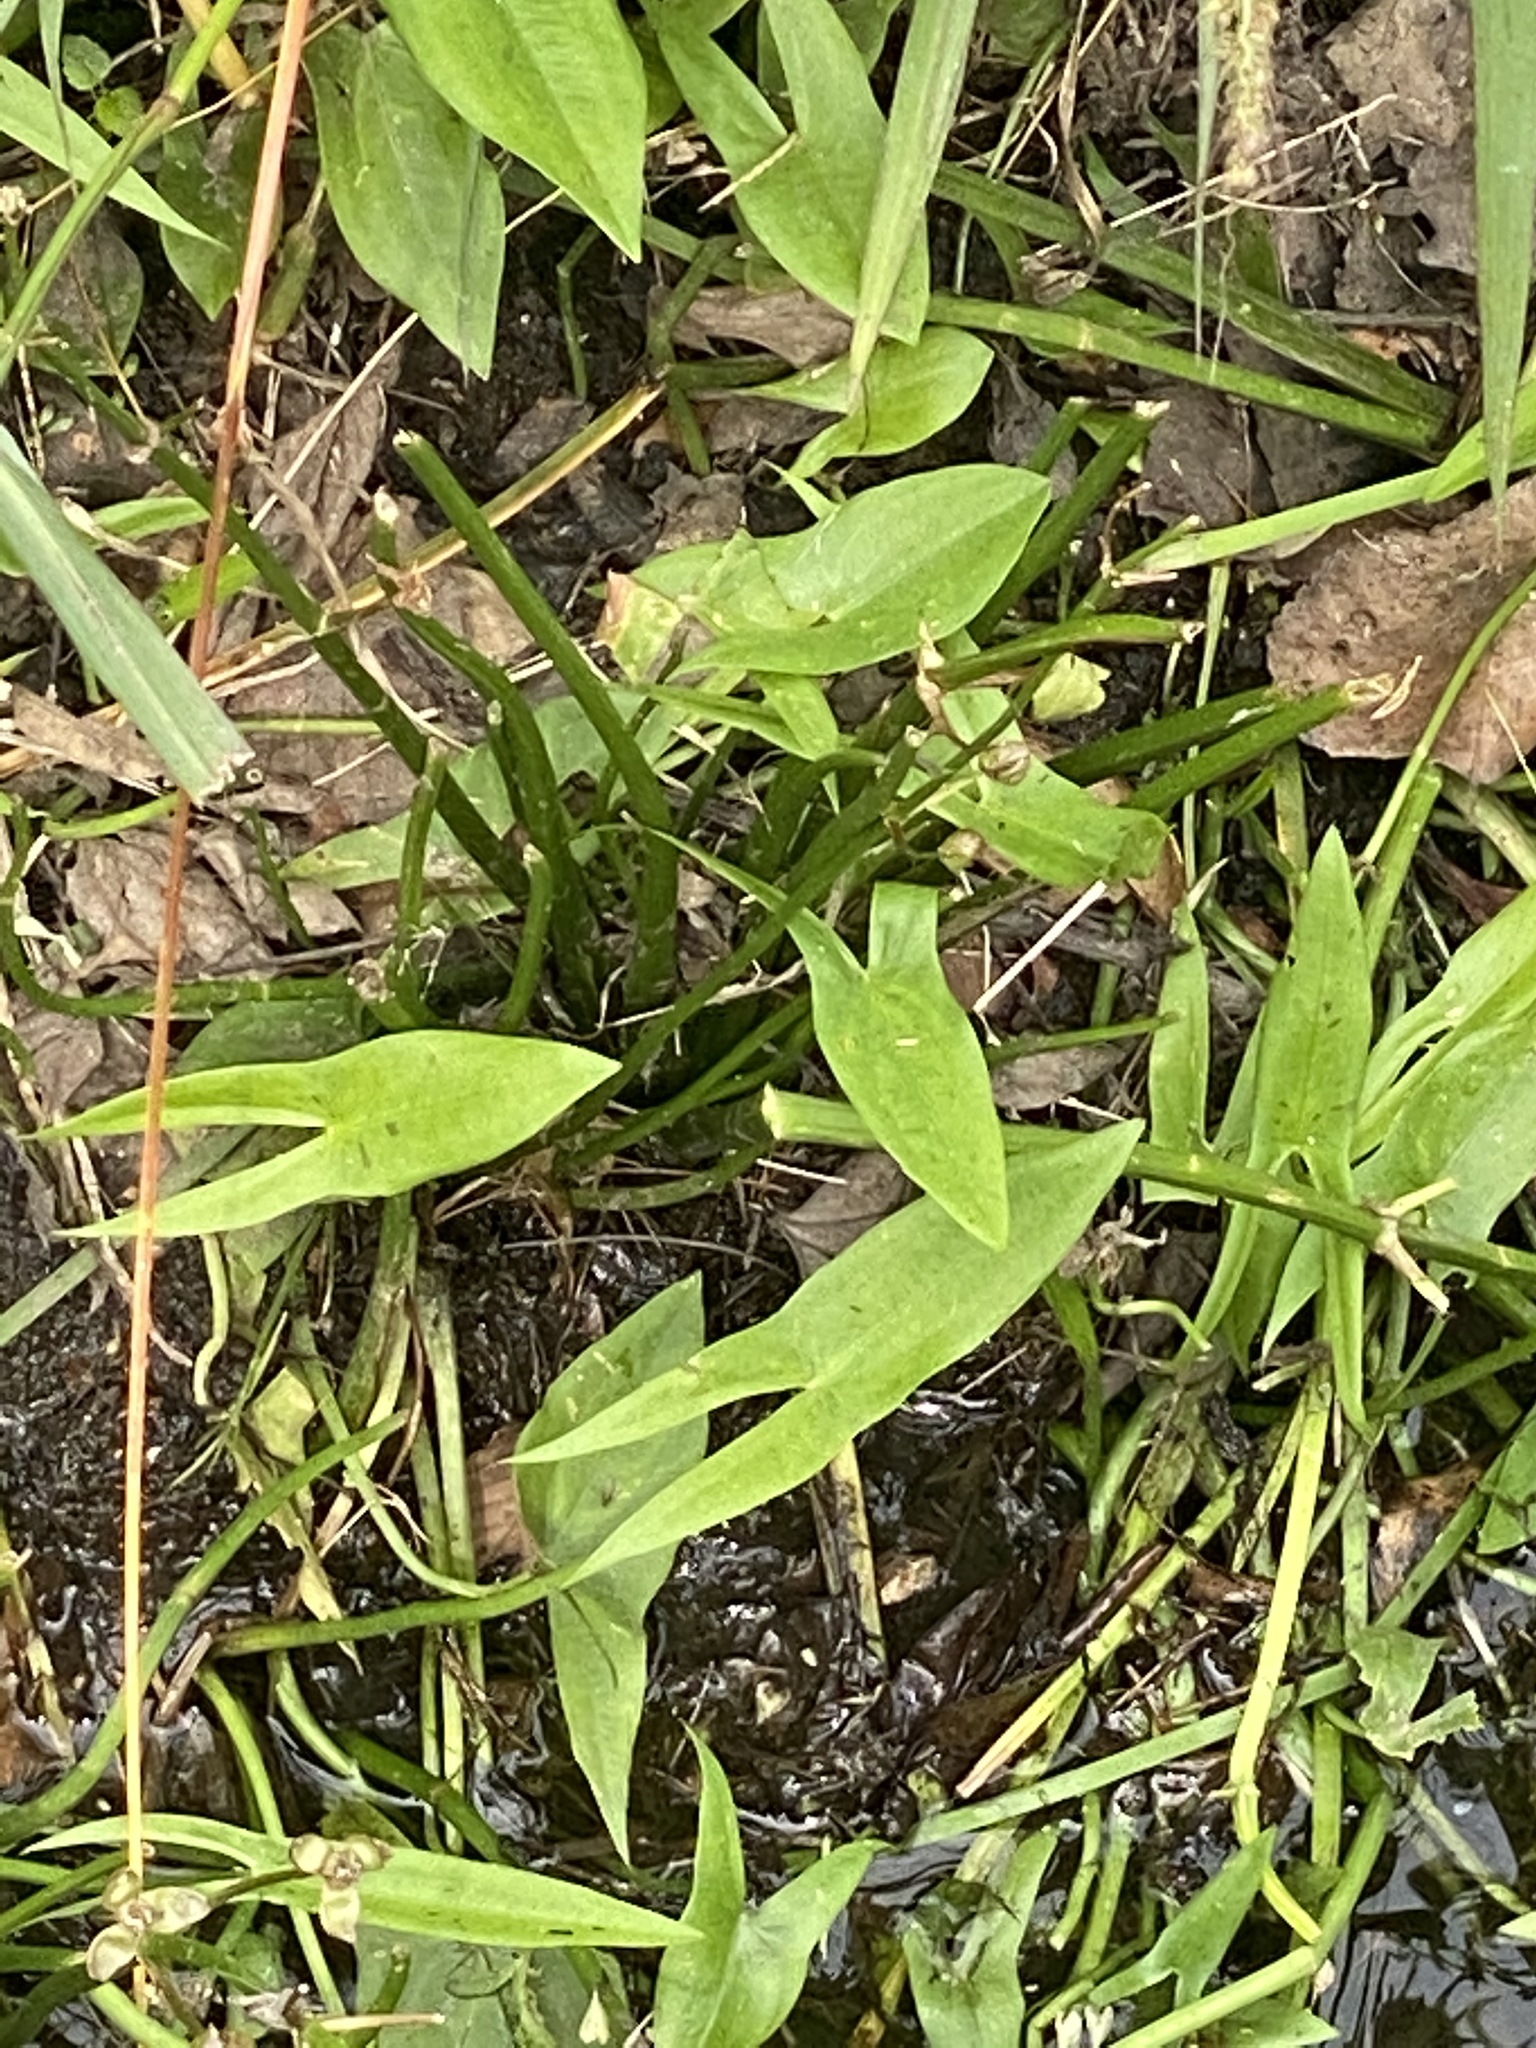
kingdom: Plantae
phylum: Tracheophyta
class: Liliopsida
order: Alismatales
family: Alismataceae
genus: Sagittaria
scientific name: Sagittaria latifolia
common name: Duck-potato
